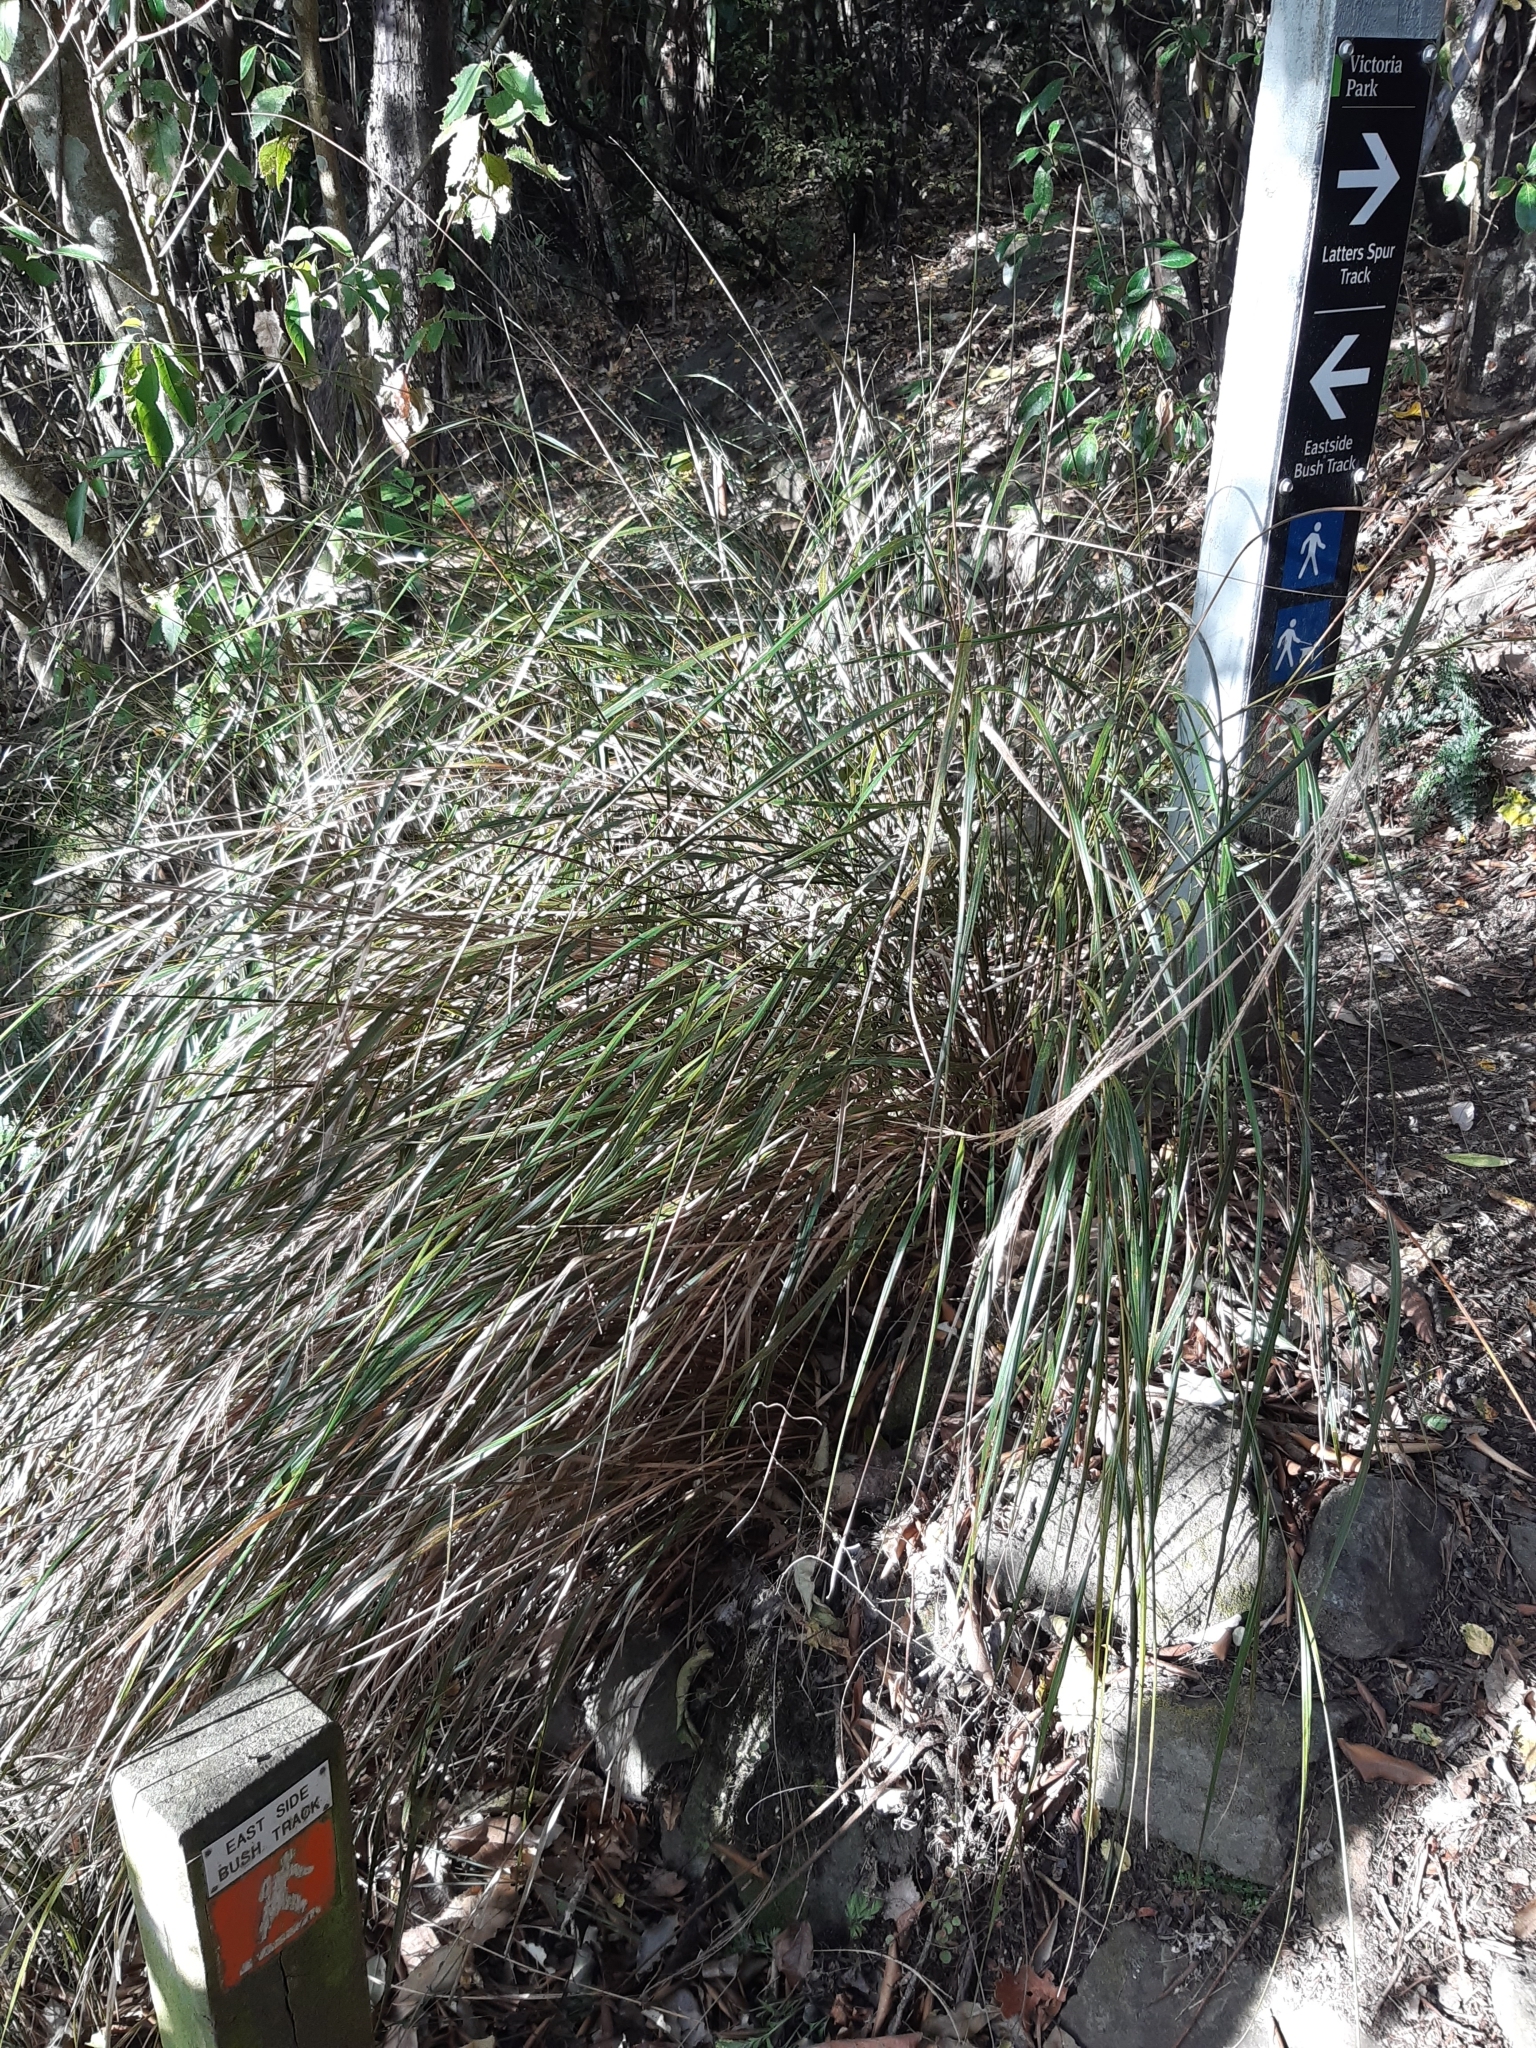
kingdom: Plantae
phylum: Tracheophyta
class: Liliopsida
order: Poales
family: Poaceae
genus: Anemanthele
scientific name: Anemanthele lessoniana
